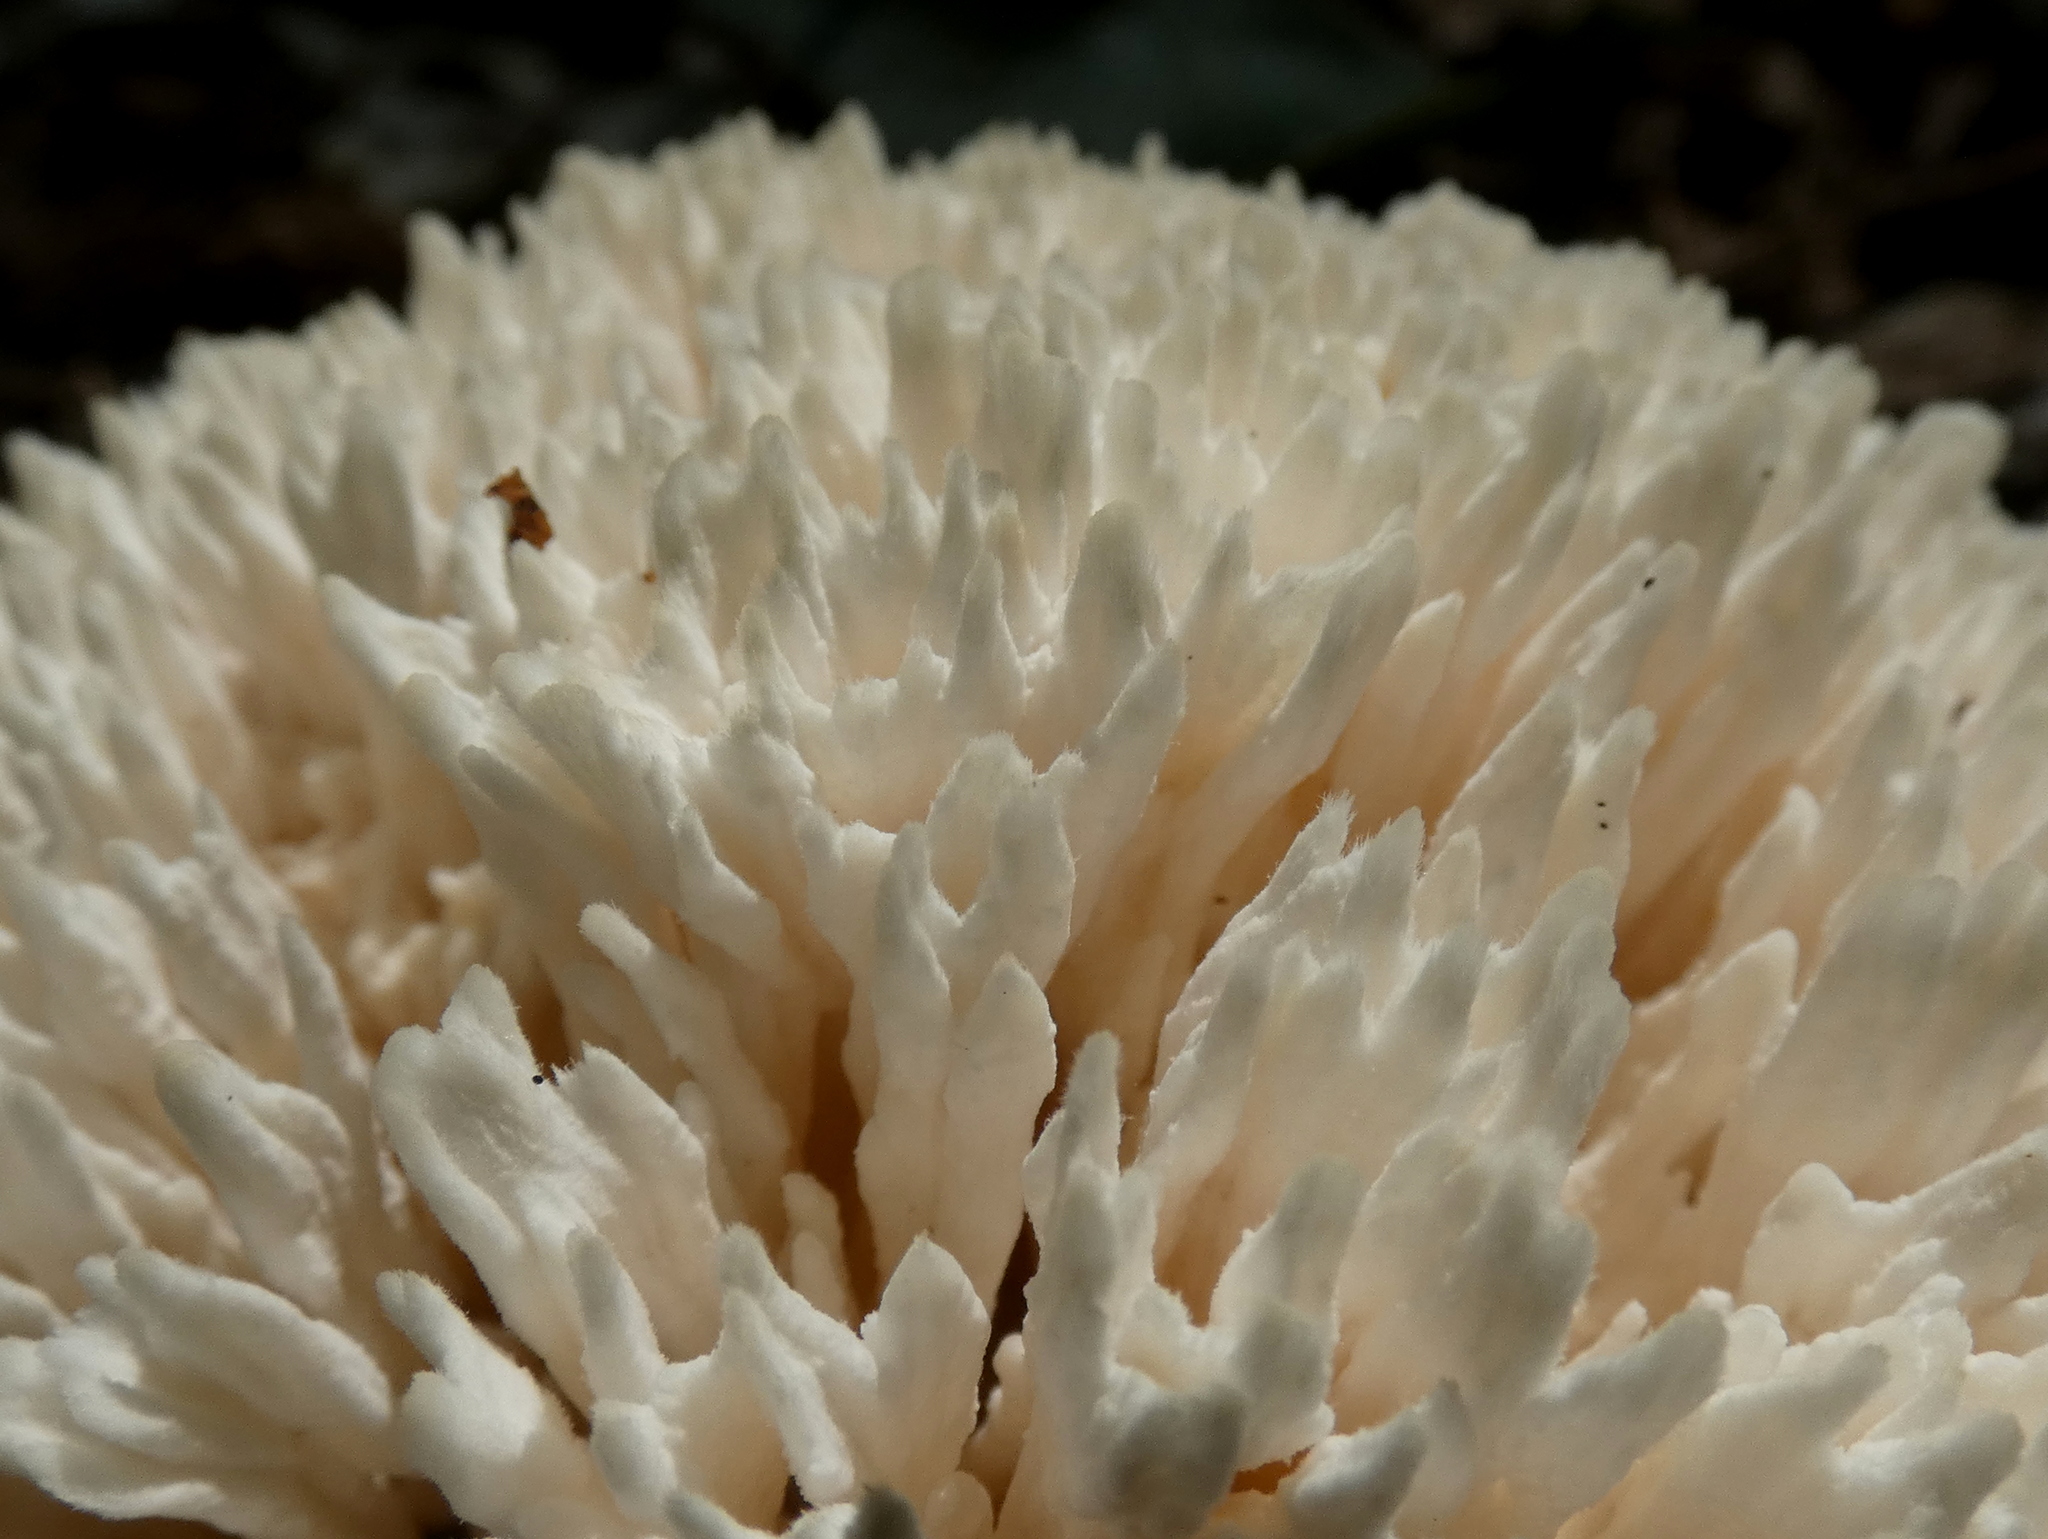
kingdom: Fungi
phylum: Basidiomycota
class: Agaricomycetes
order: Sebacinales
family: Sebacinaceae
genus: Sebacina
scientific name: Sebacina schweinitzii
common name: Jellied false coral fungus
